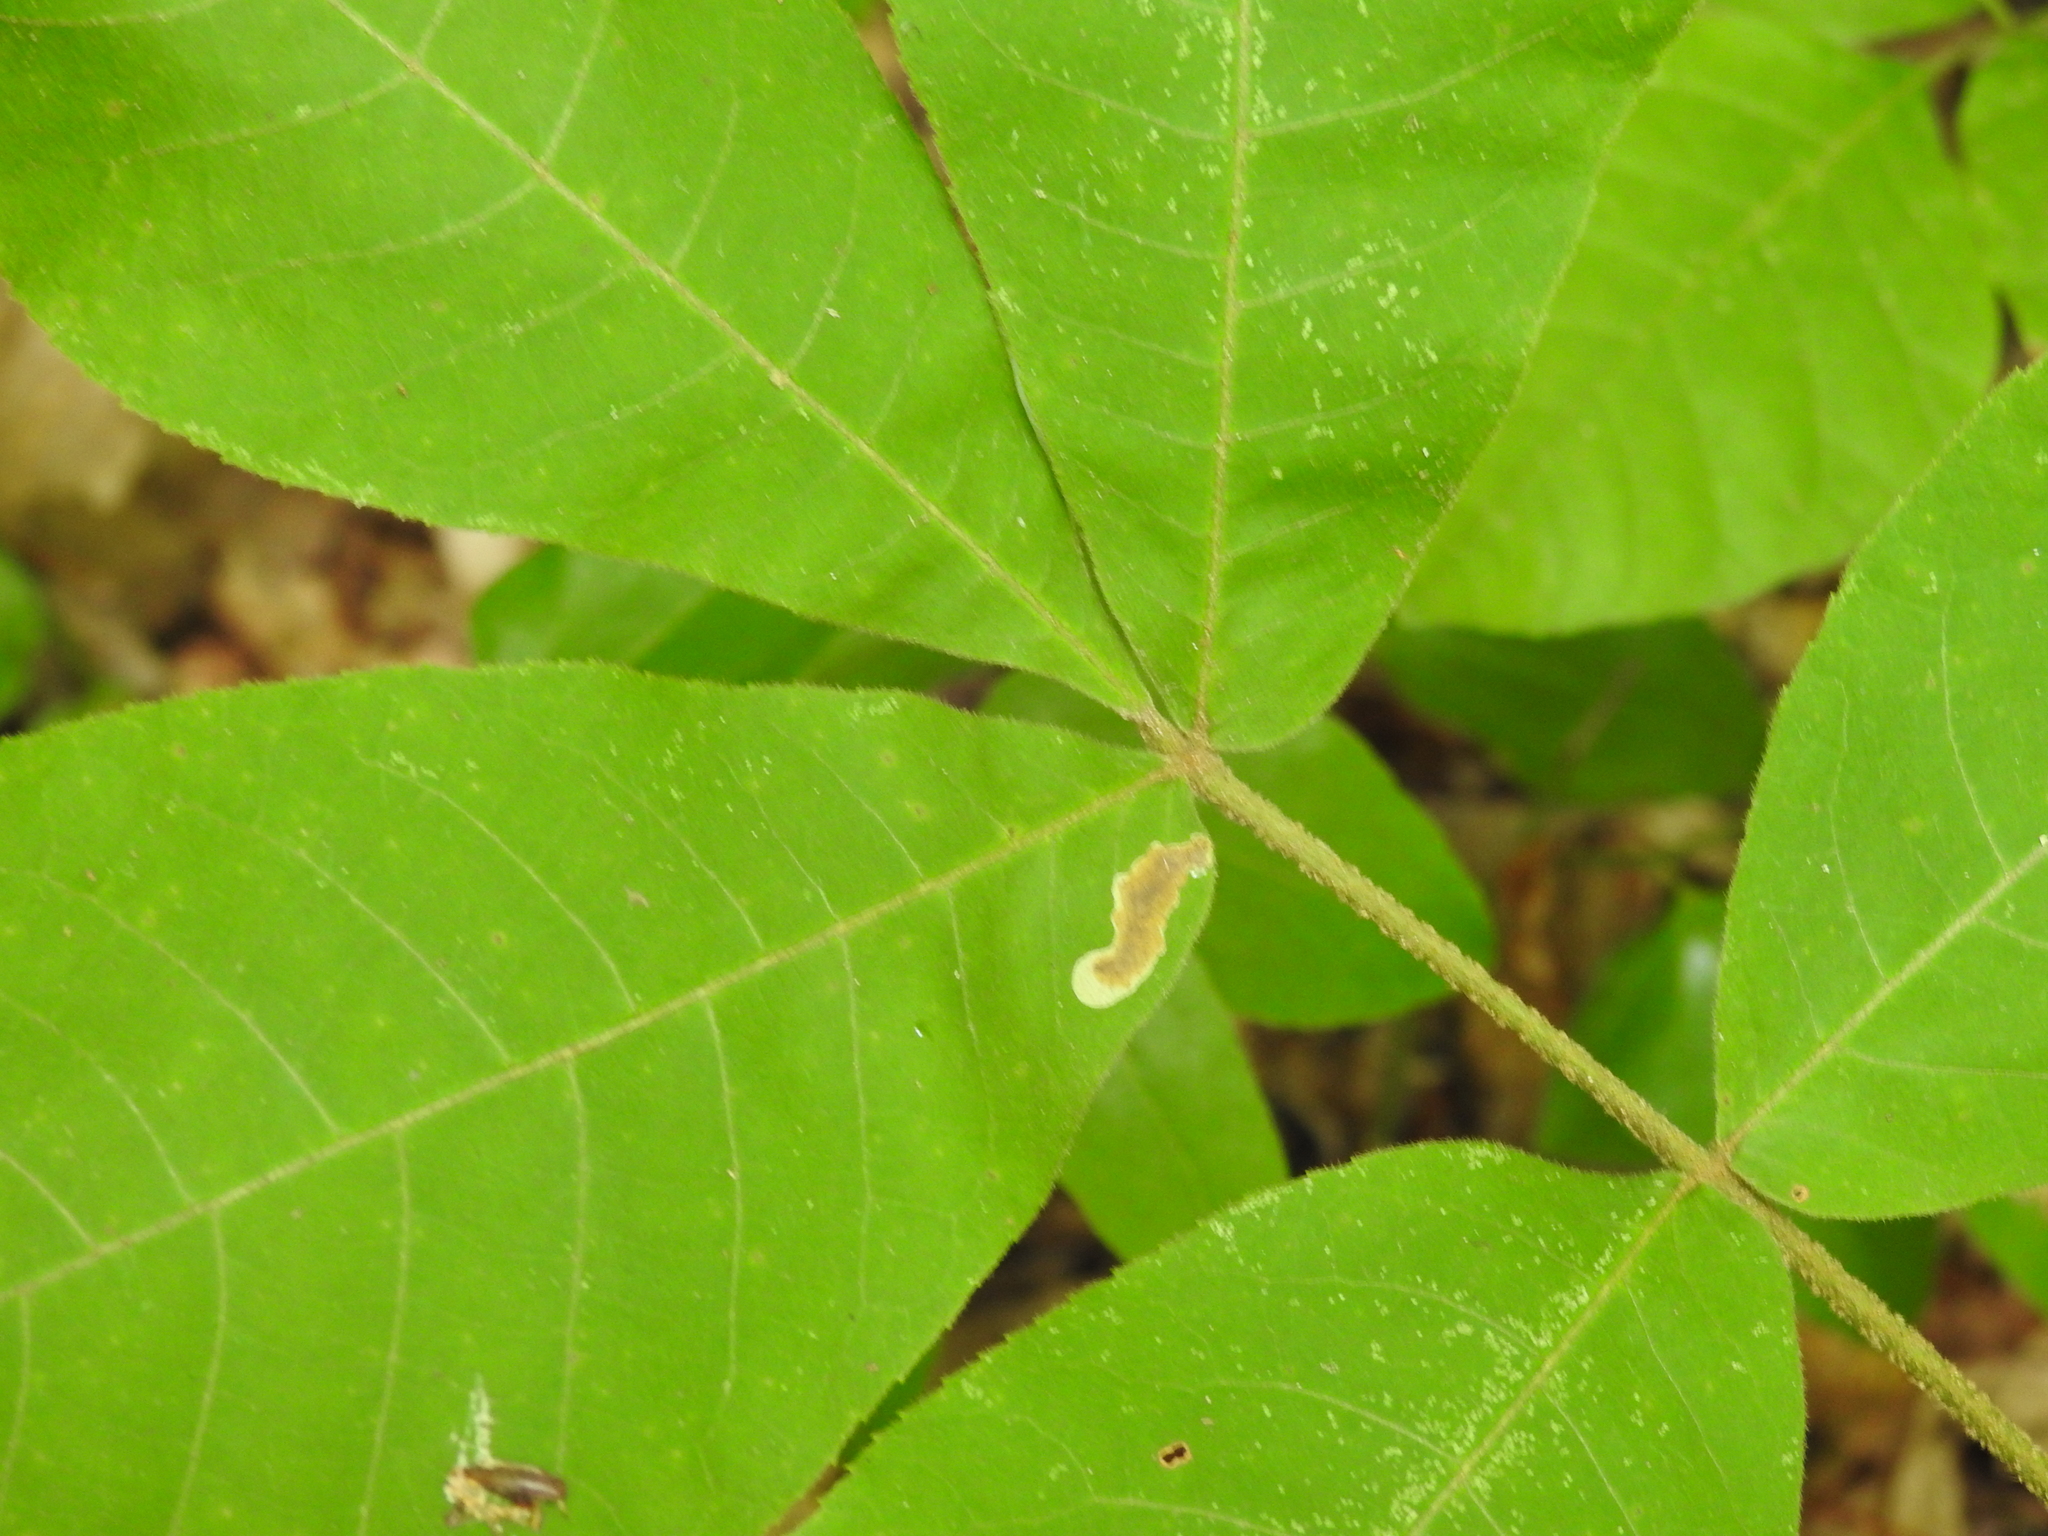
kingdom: Animalia
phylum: Arthropoda
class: Insecta
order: Lepidoptera
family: Gracillariidae
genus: Cameraria
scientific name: Cameraria caryaefoliella
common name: Pecan leafminer moth
